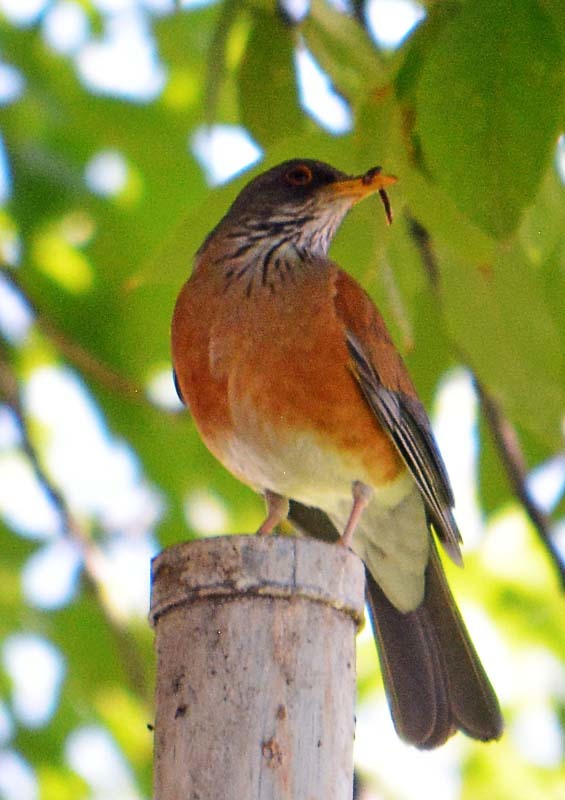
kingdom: Animalia
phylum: Chordata
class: Aves
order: Passeriformes
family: Turdidae
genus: Turdus
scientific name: Turdus rufopalliatus
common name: Rufous-backed robin
